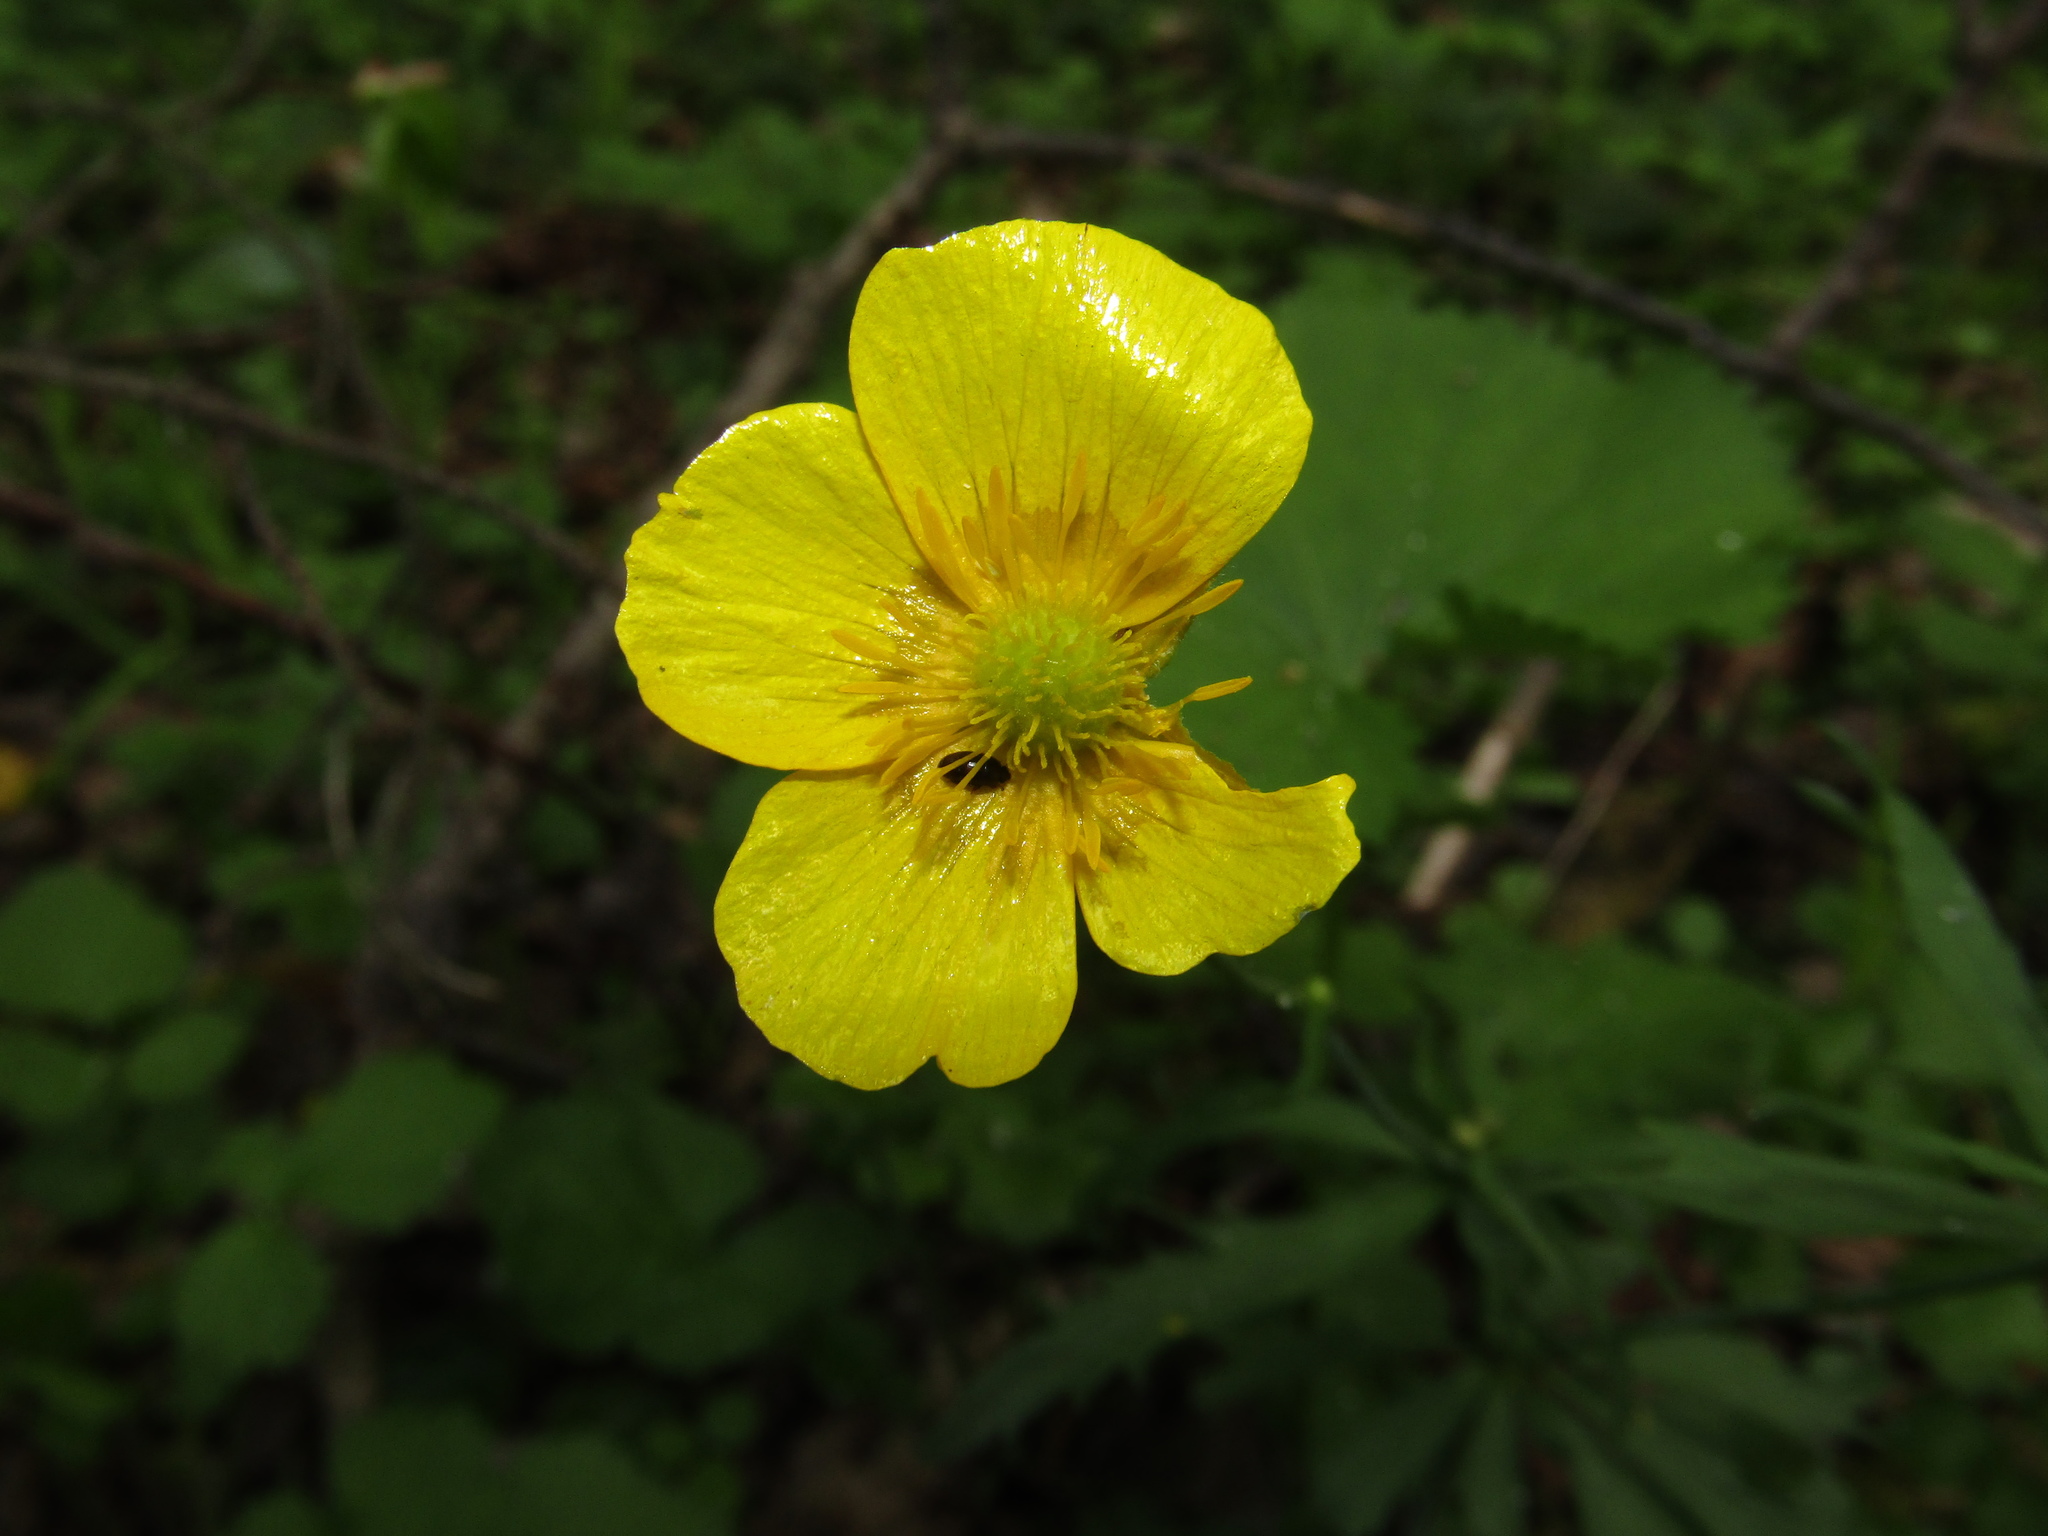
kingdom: Plantae
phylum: Tracheophyta
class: Magnoliopsida
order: Ranunculales
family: Ranunculaceae
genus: Ranunculus
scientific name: Ranunculus cassubicus
